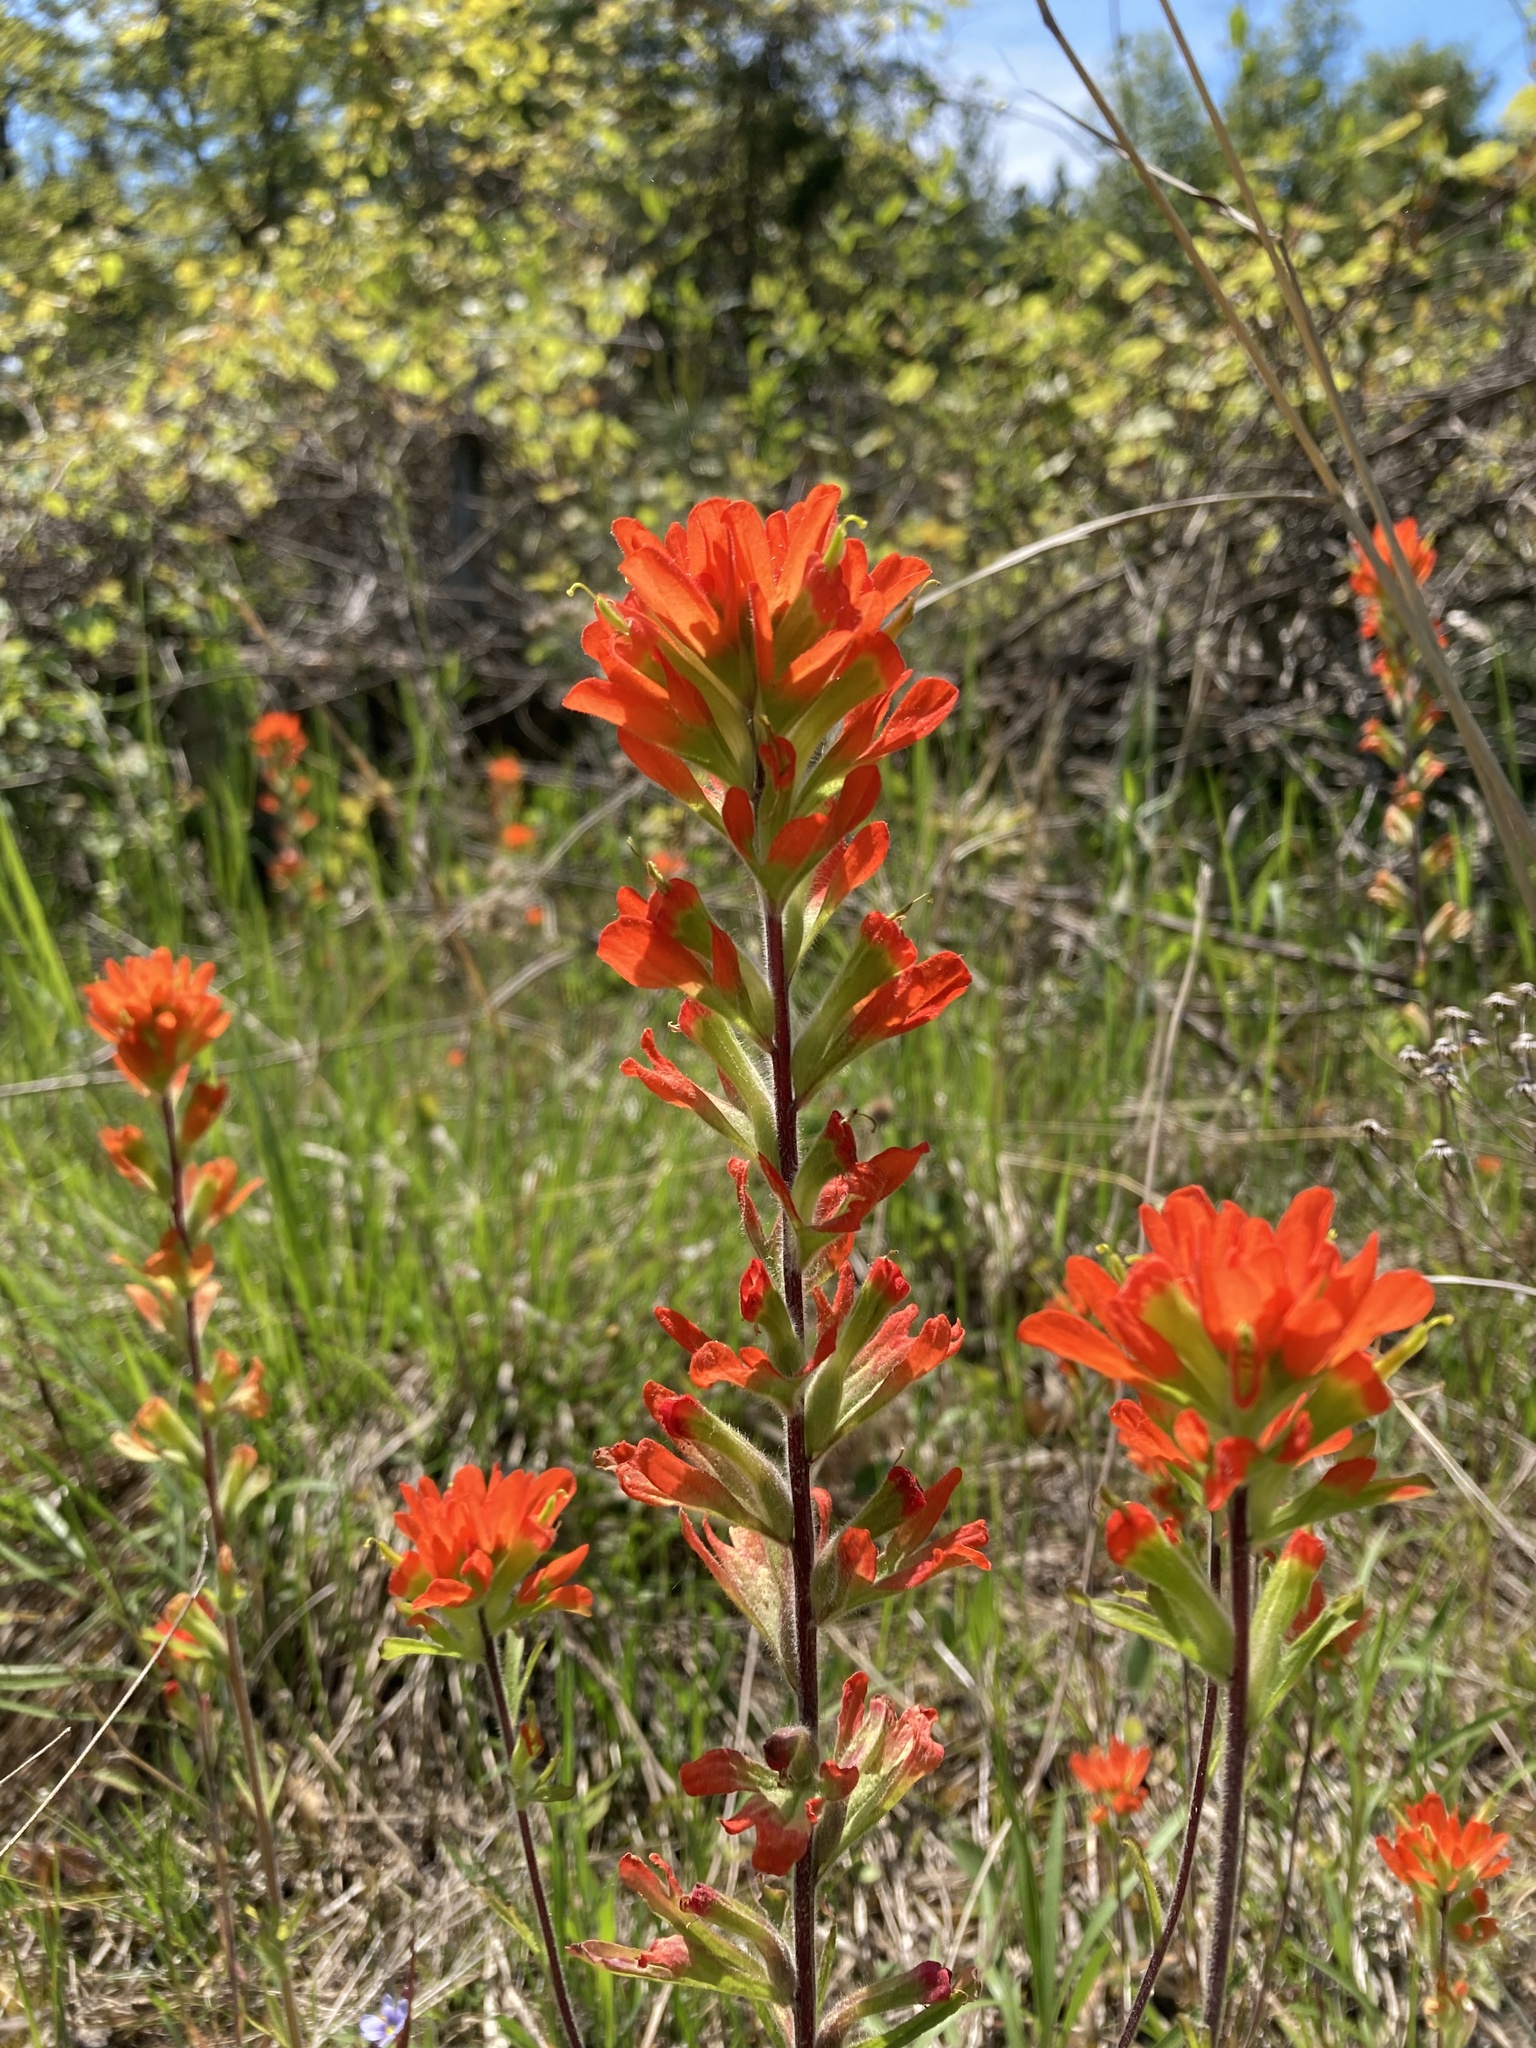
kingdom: Plantae
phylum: Tracheophyta
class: Magnoliopsida
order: Lamiales
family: Orobanchaceae
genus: Castilleja
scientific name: Castilleja coccinea
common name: Scarlet paintbrush
